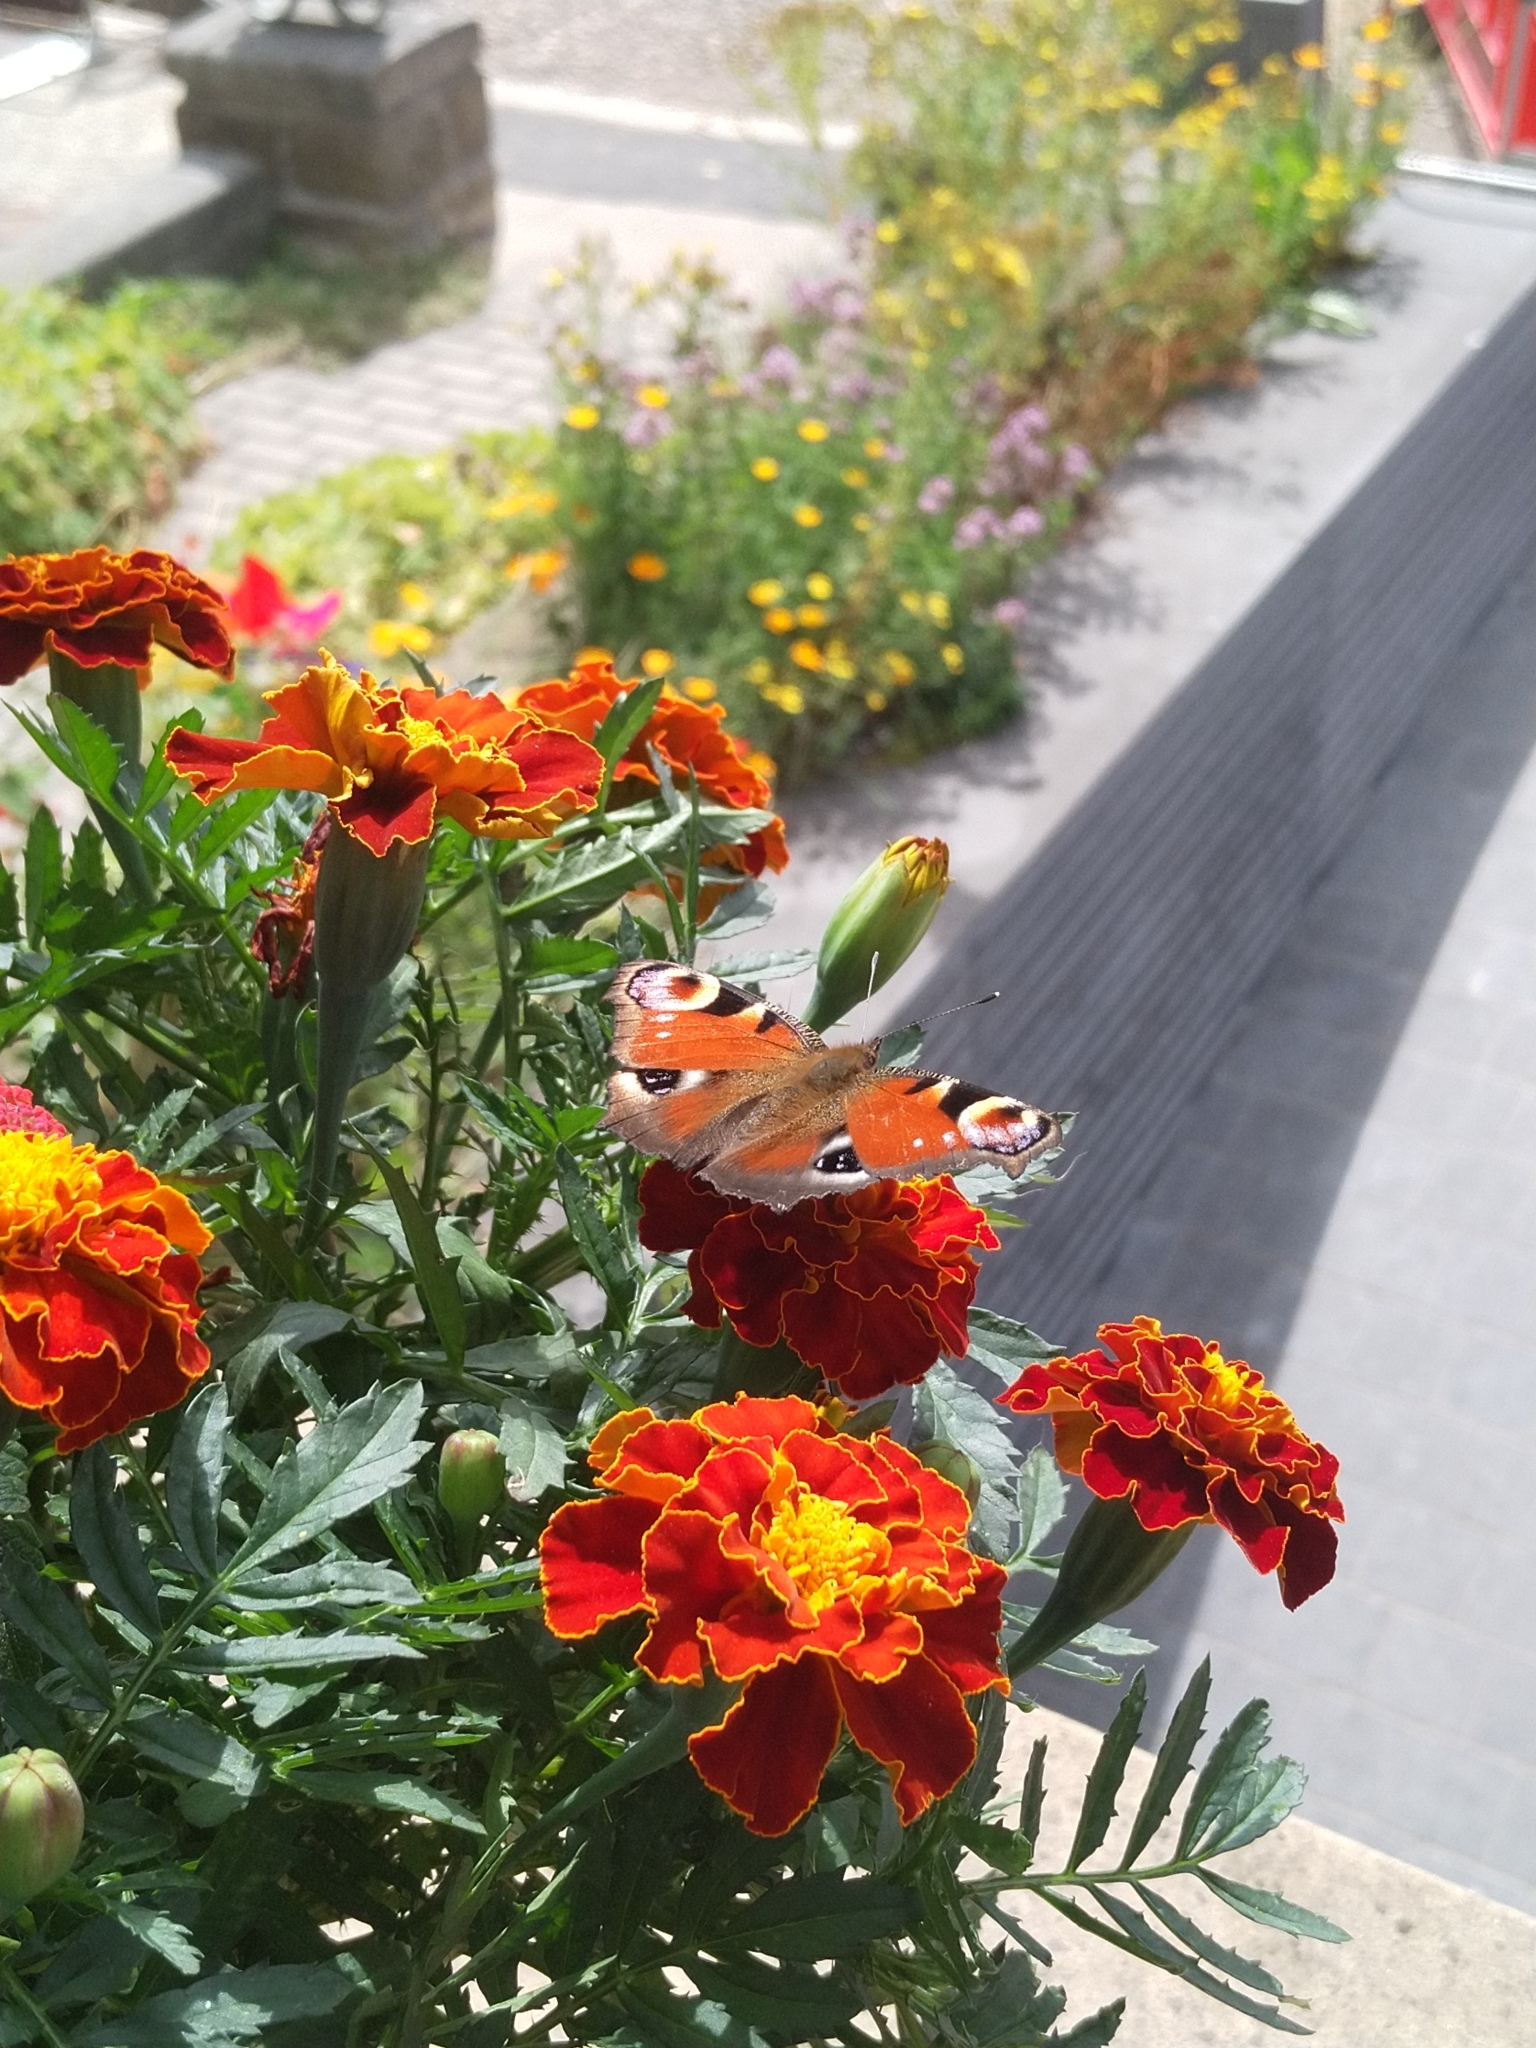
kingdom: Animalia
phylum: Arthropoda
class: Insecta
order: Lepidoptera
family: Nymphalidae
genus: Aglais
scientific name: Aglais io
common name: Peacock
